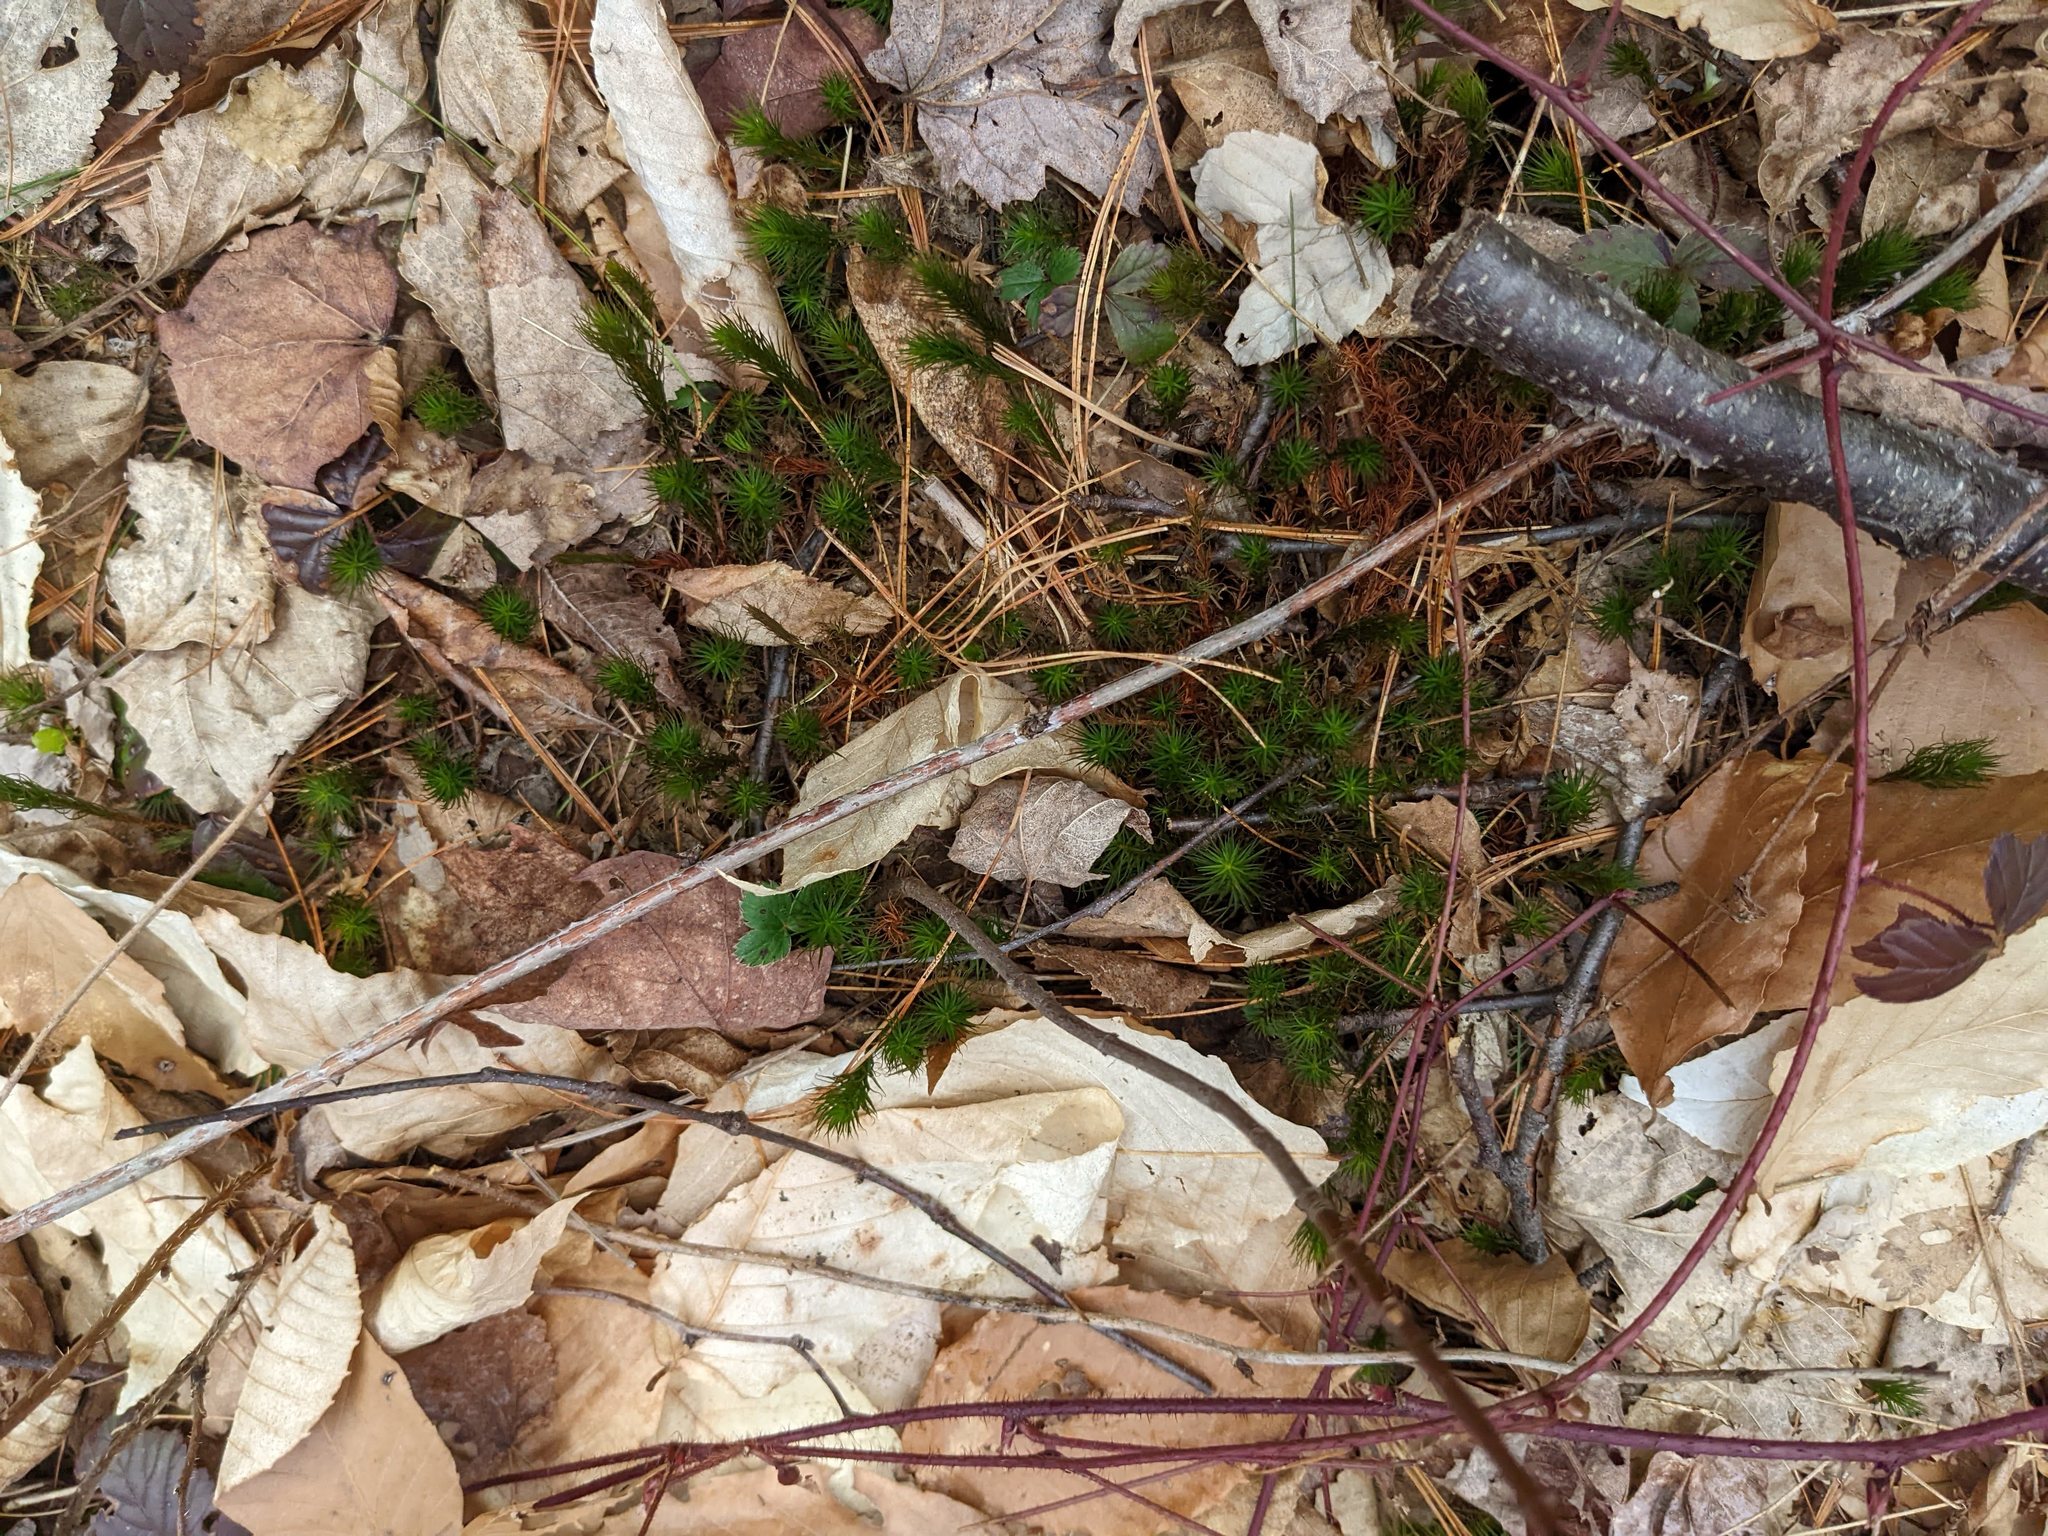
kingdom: Plantae
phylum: Tracheophyta
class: Magnoliopsida
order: Fagales
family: Fagaceae
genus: Fagus
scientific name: Fagus grandifolia
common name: American beech
